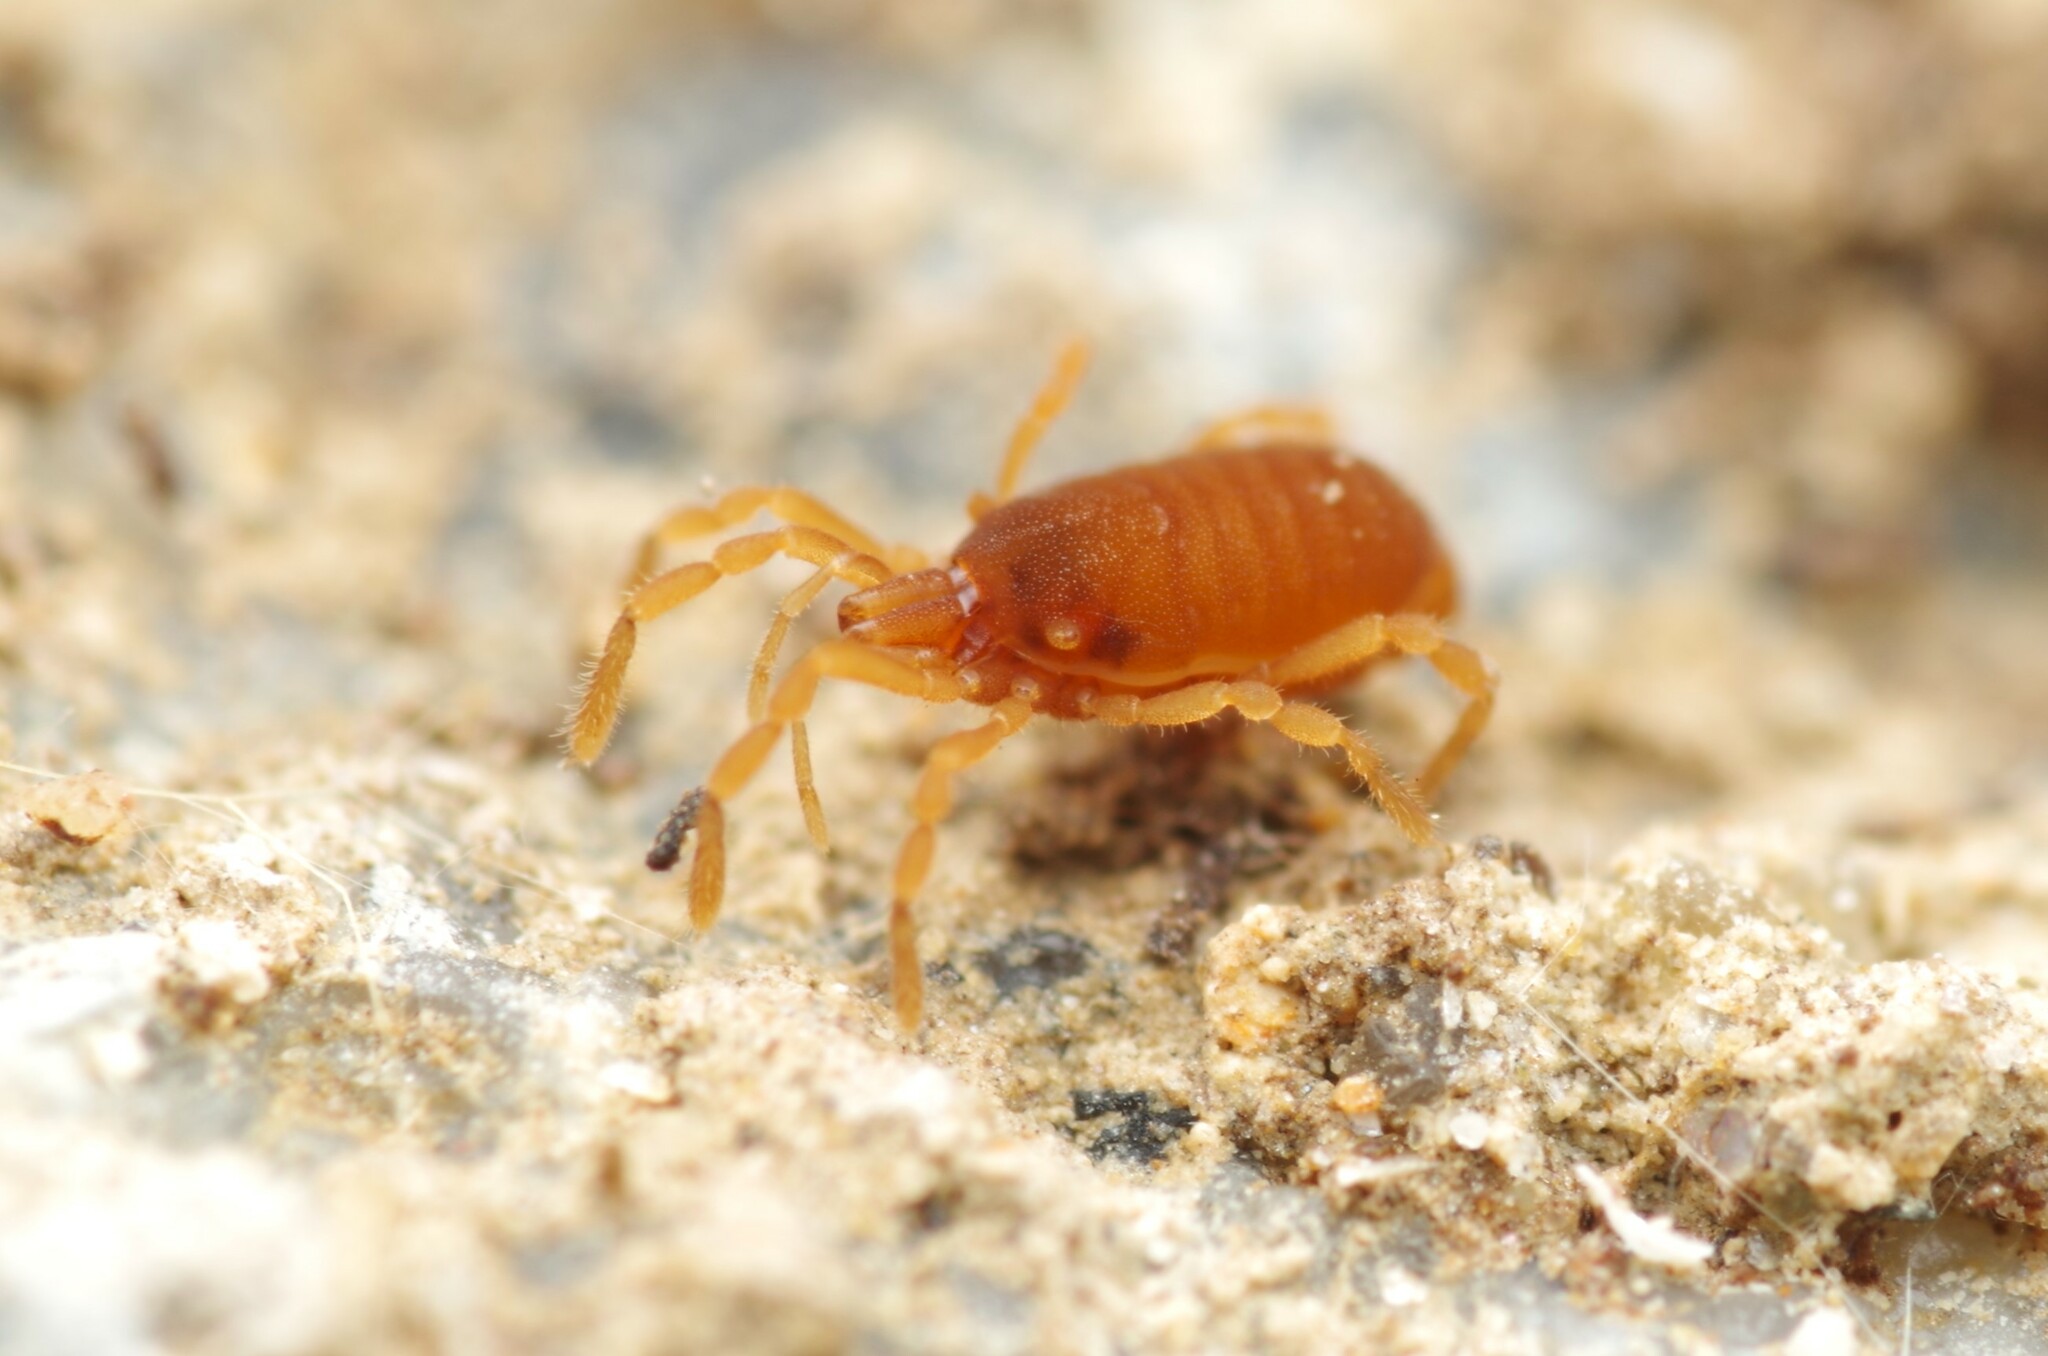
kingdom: Animalia
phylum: Arthropoda
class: Arachnida
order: Opiliones
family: Sironidae
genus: Siro
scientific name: Siro rubens
